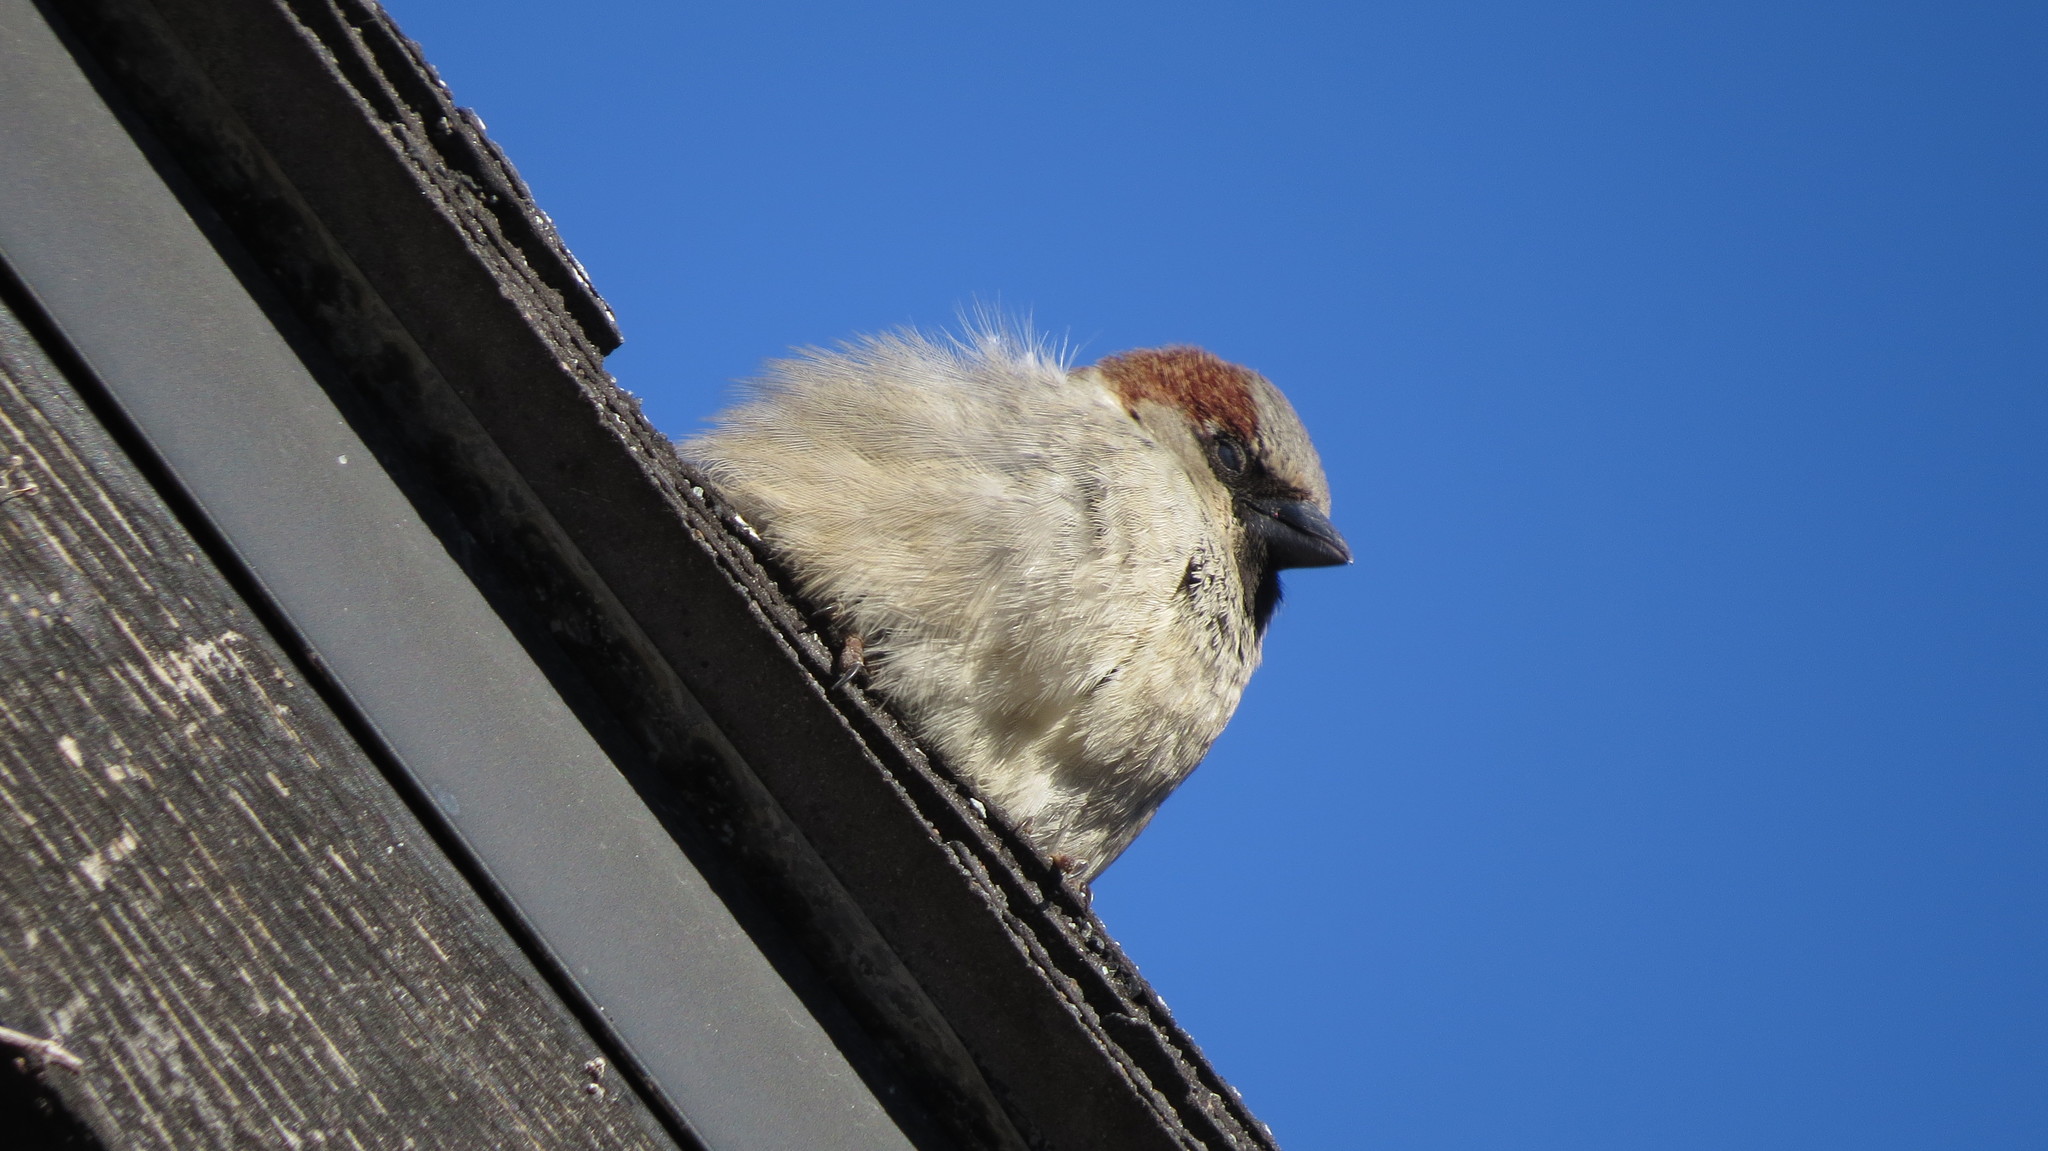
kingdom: Animalia
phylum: Chordata
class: Aves
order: Passeriformes
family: Passeridae
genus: Passer
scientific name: Passer domesticus
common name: House sparrow
